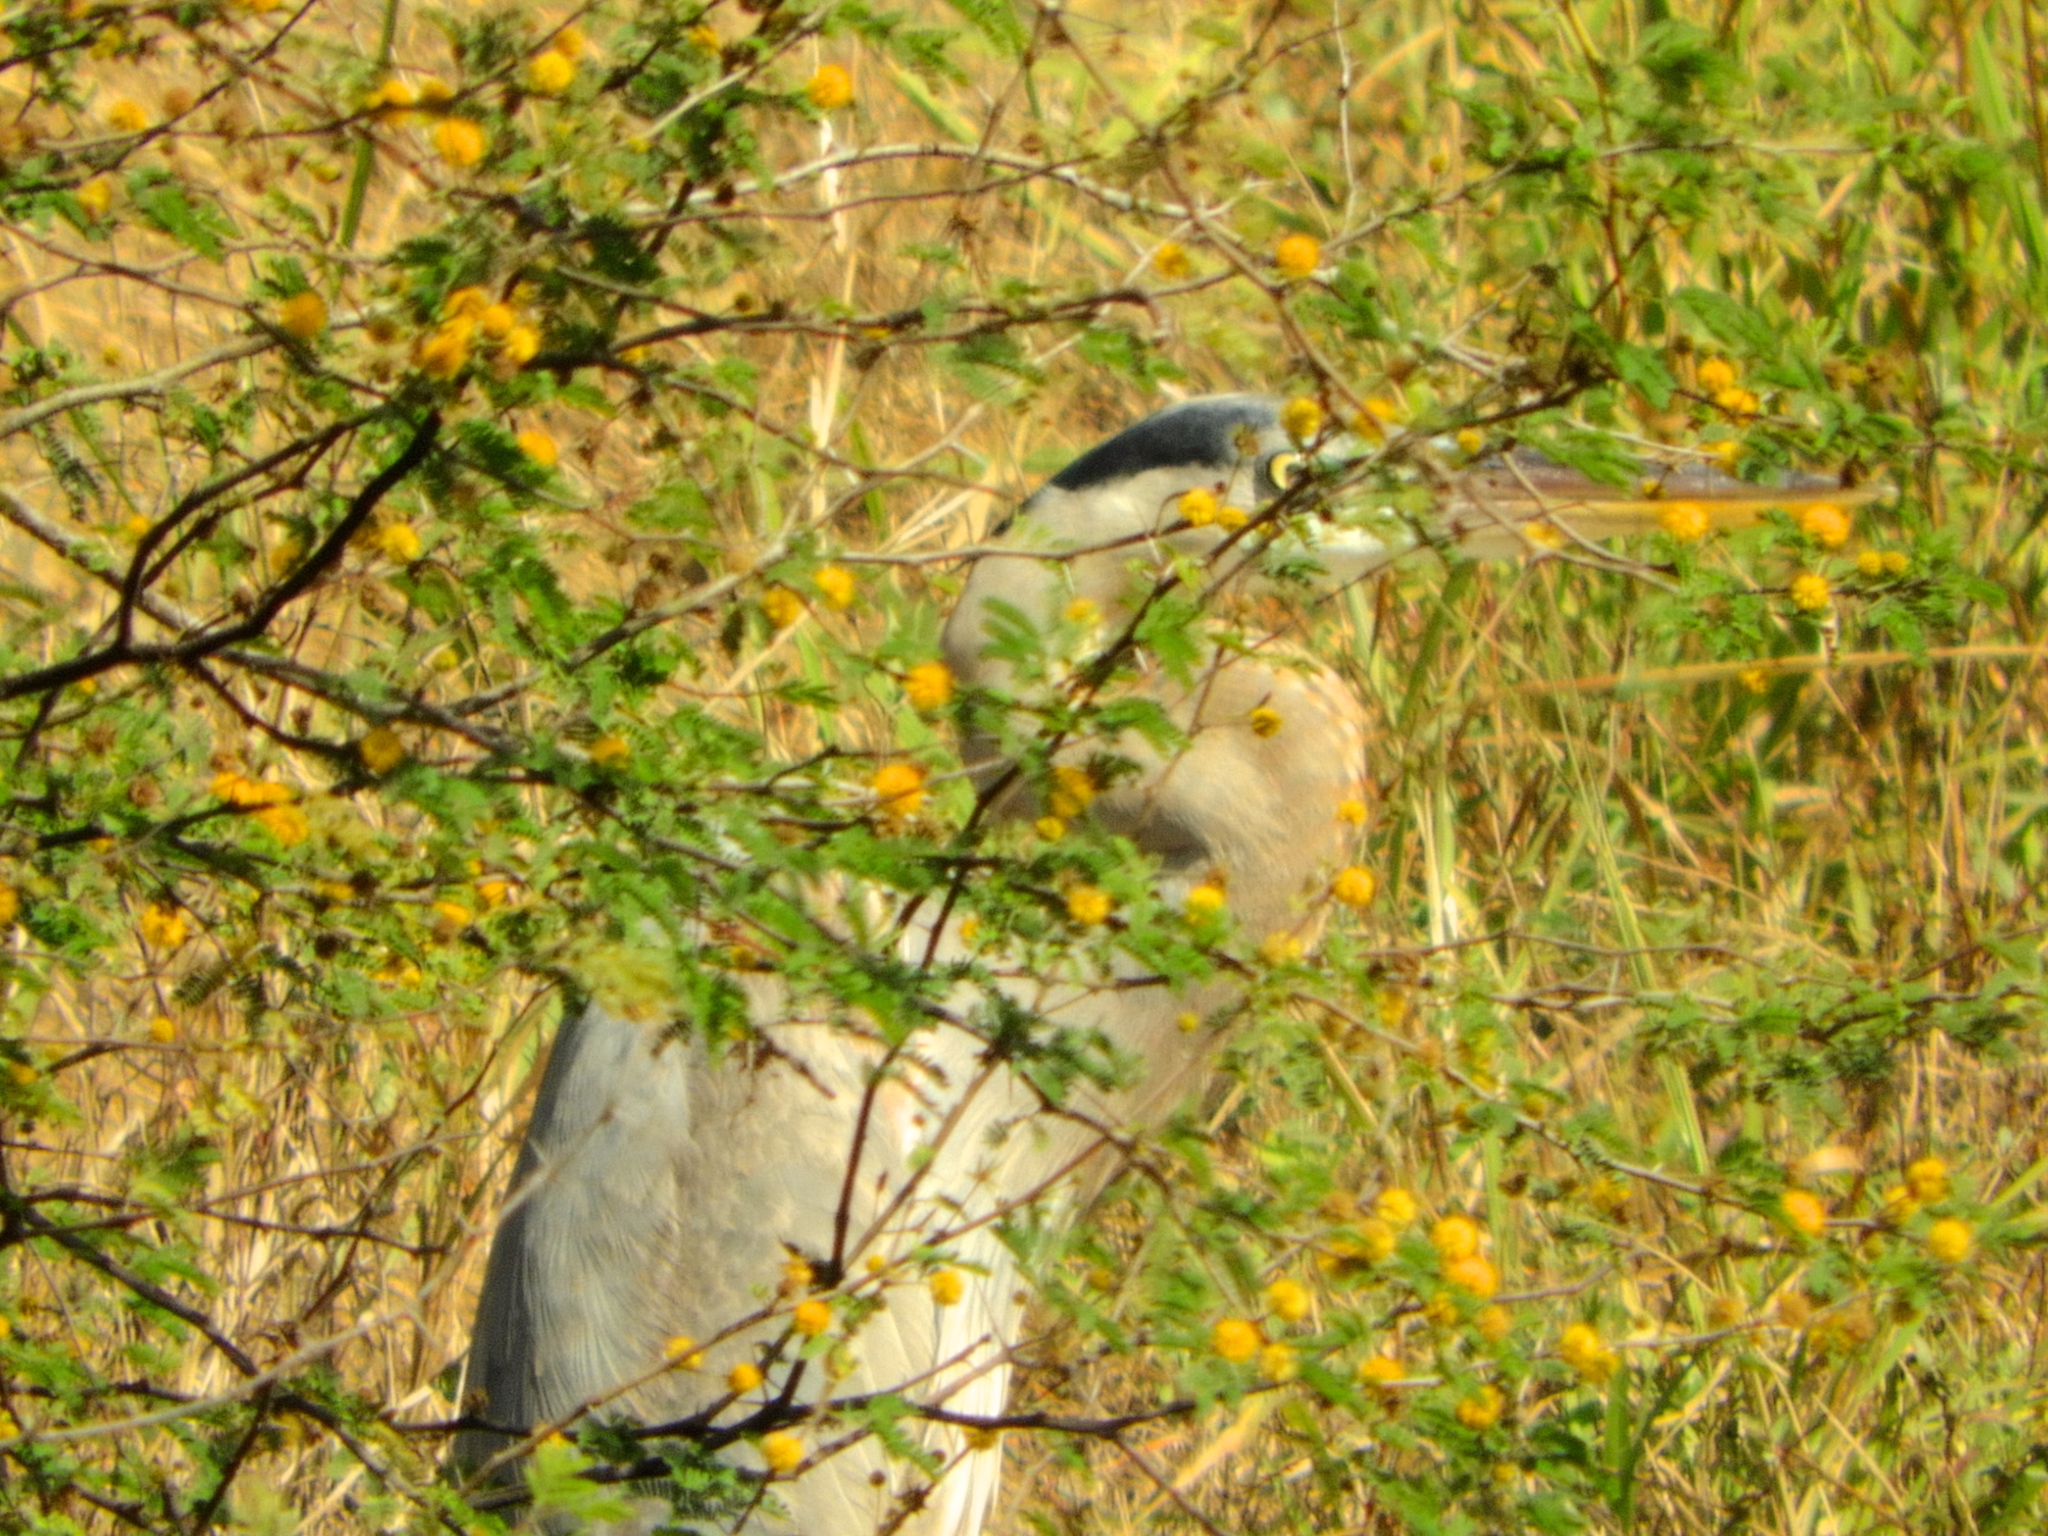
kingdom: Animalia
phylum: Chordata
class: Aves
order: Pelecaniformes
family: Ardeidae
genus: Ardea
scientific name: Ardea herodias
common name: Great blue heron
